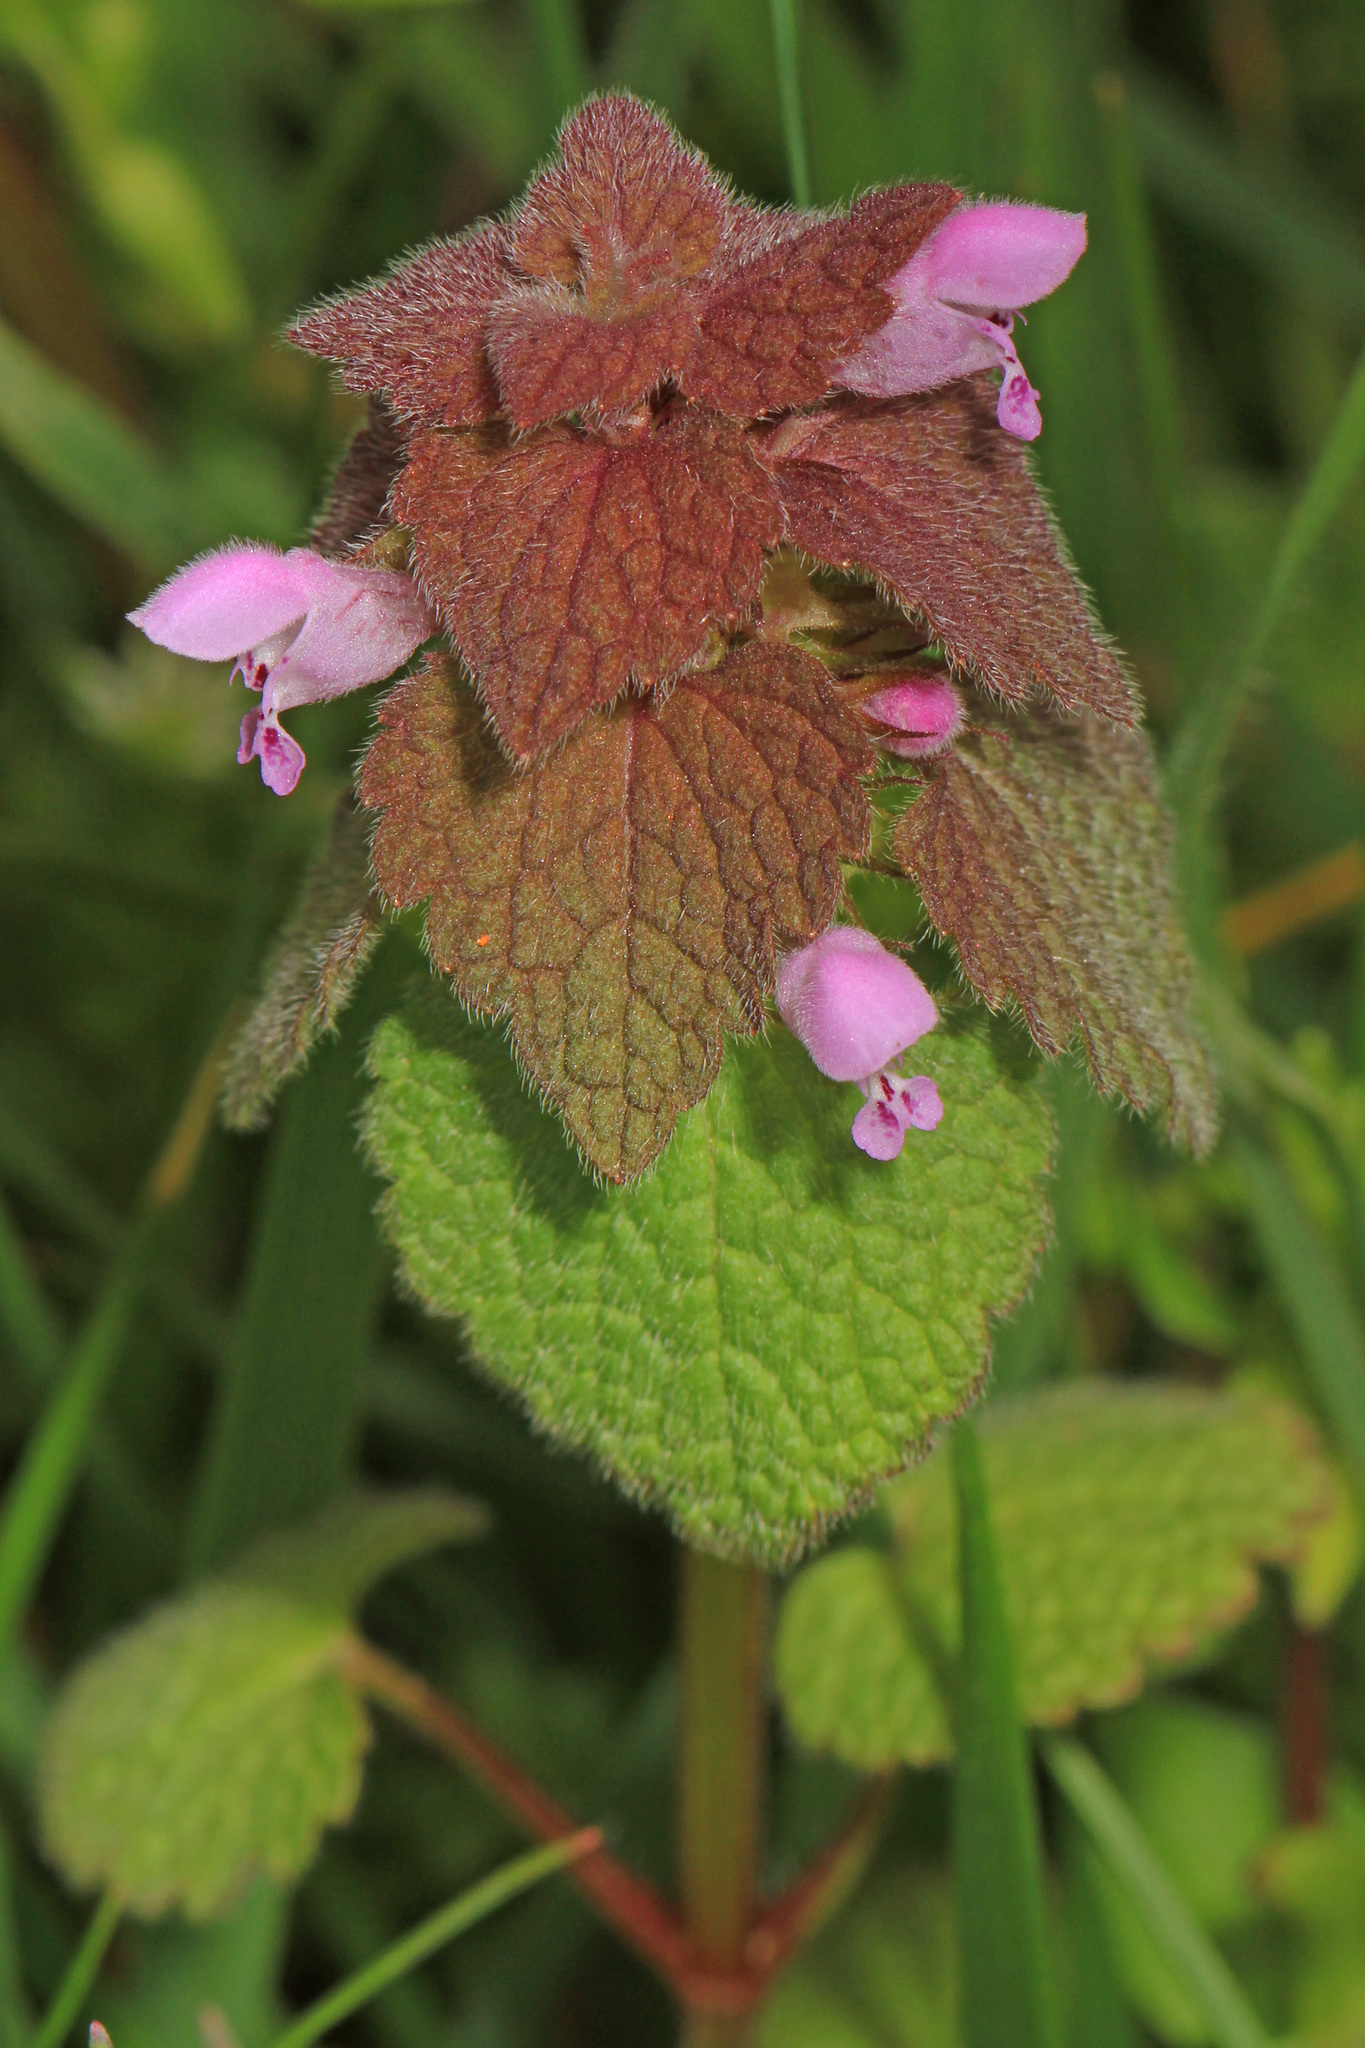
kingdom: Plantae
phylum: Tracheophyta
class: Magnoliopsida
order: Lamiales
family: Lamiaceae
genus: Lamium
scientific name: Lamium purpureum
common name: Red dead-nettle
